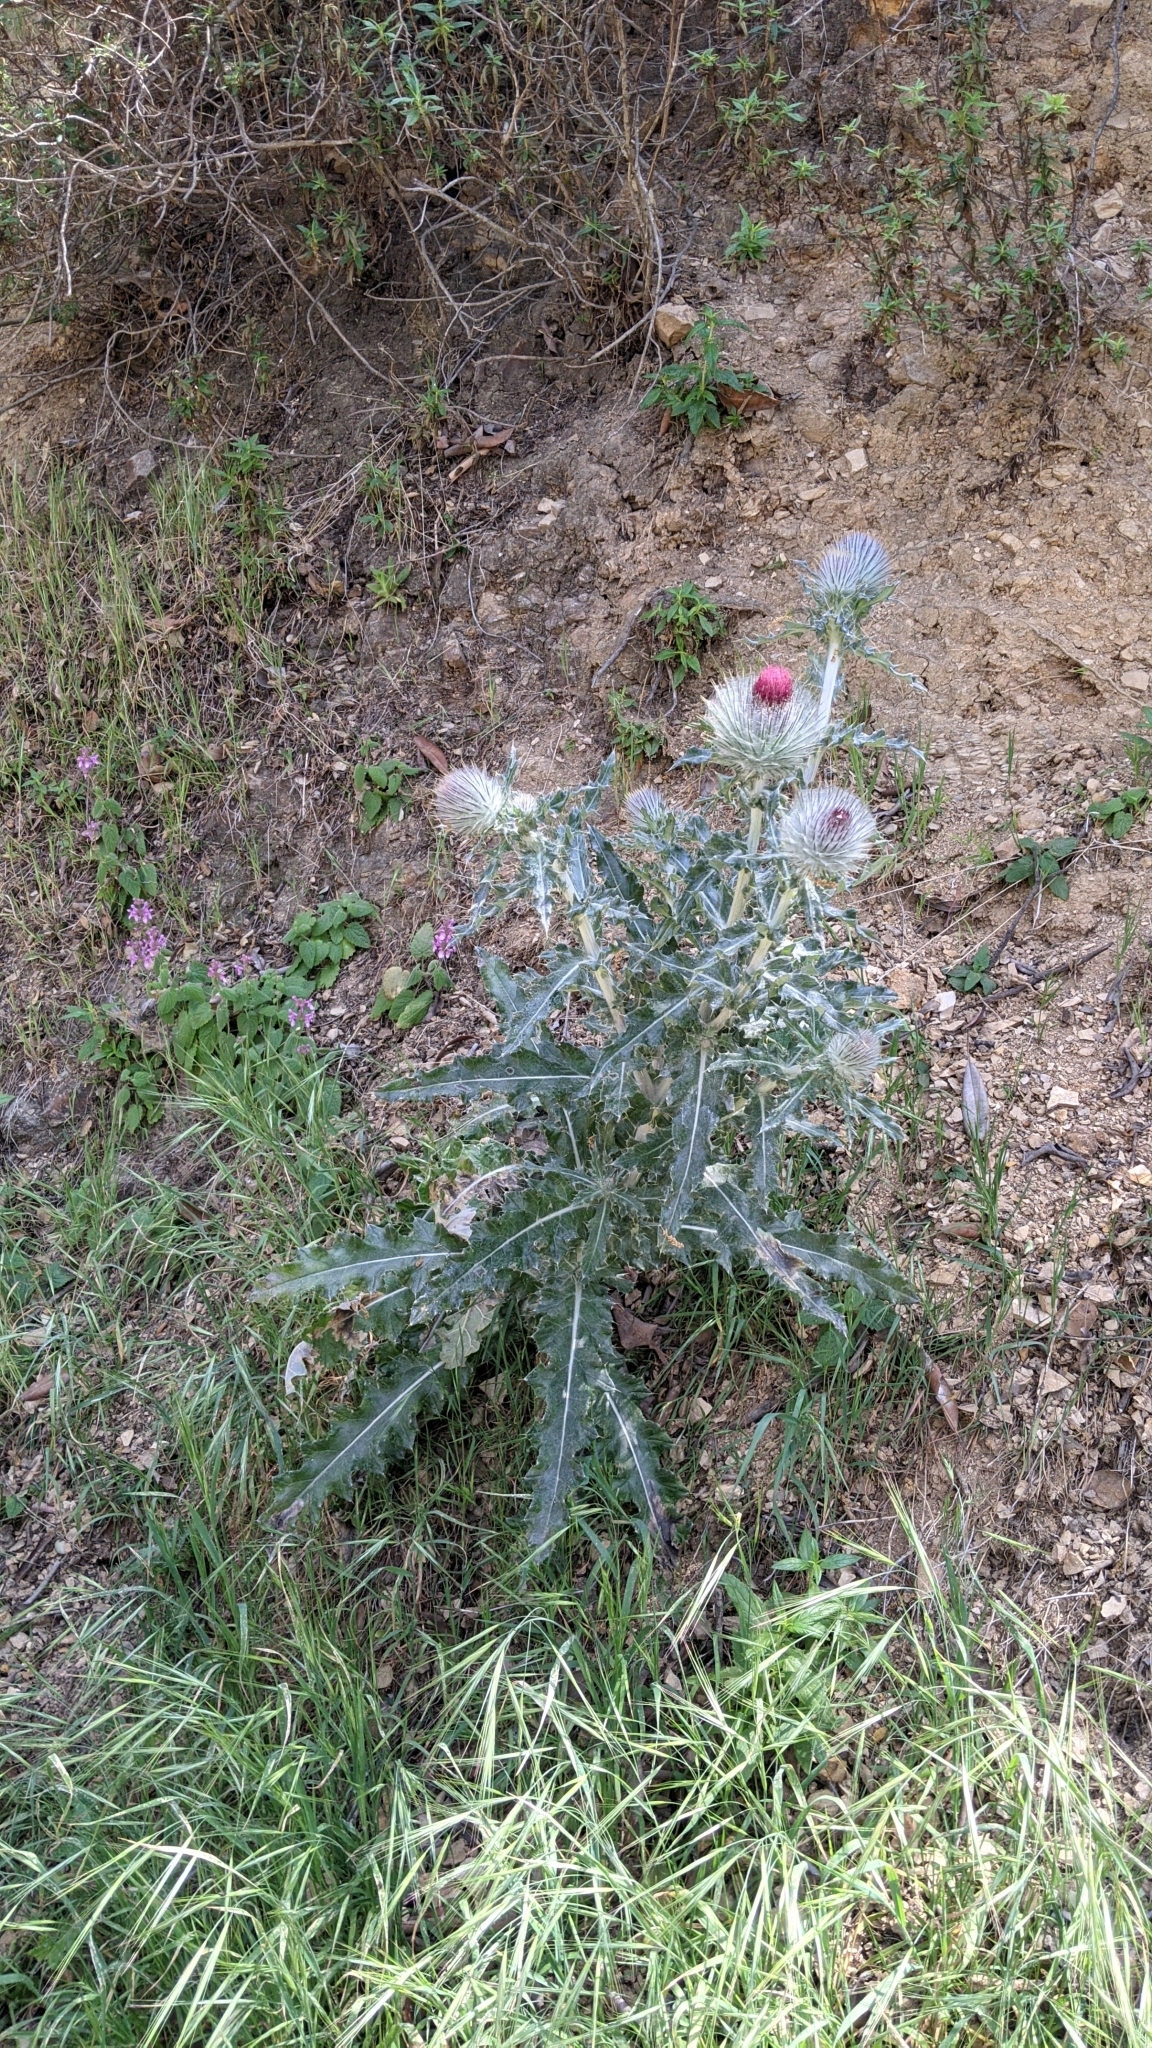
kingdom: Plantae
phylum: Tracheophyta
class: Magnoliopsida
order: Asterales
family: Asteraceae
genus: Cirsium
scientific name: Cirsium occidentale
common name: Western thistle
